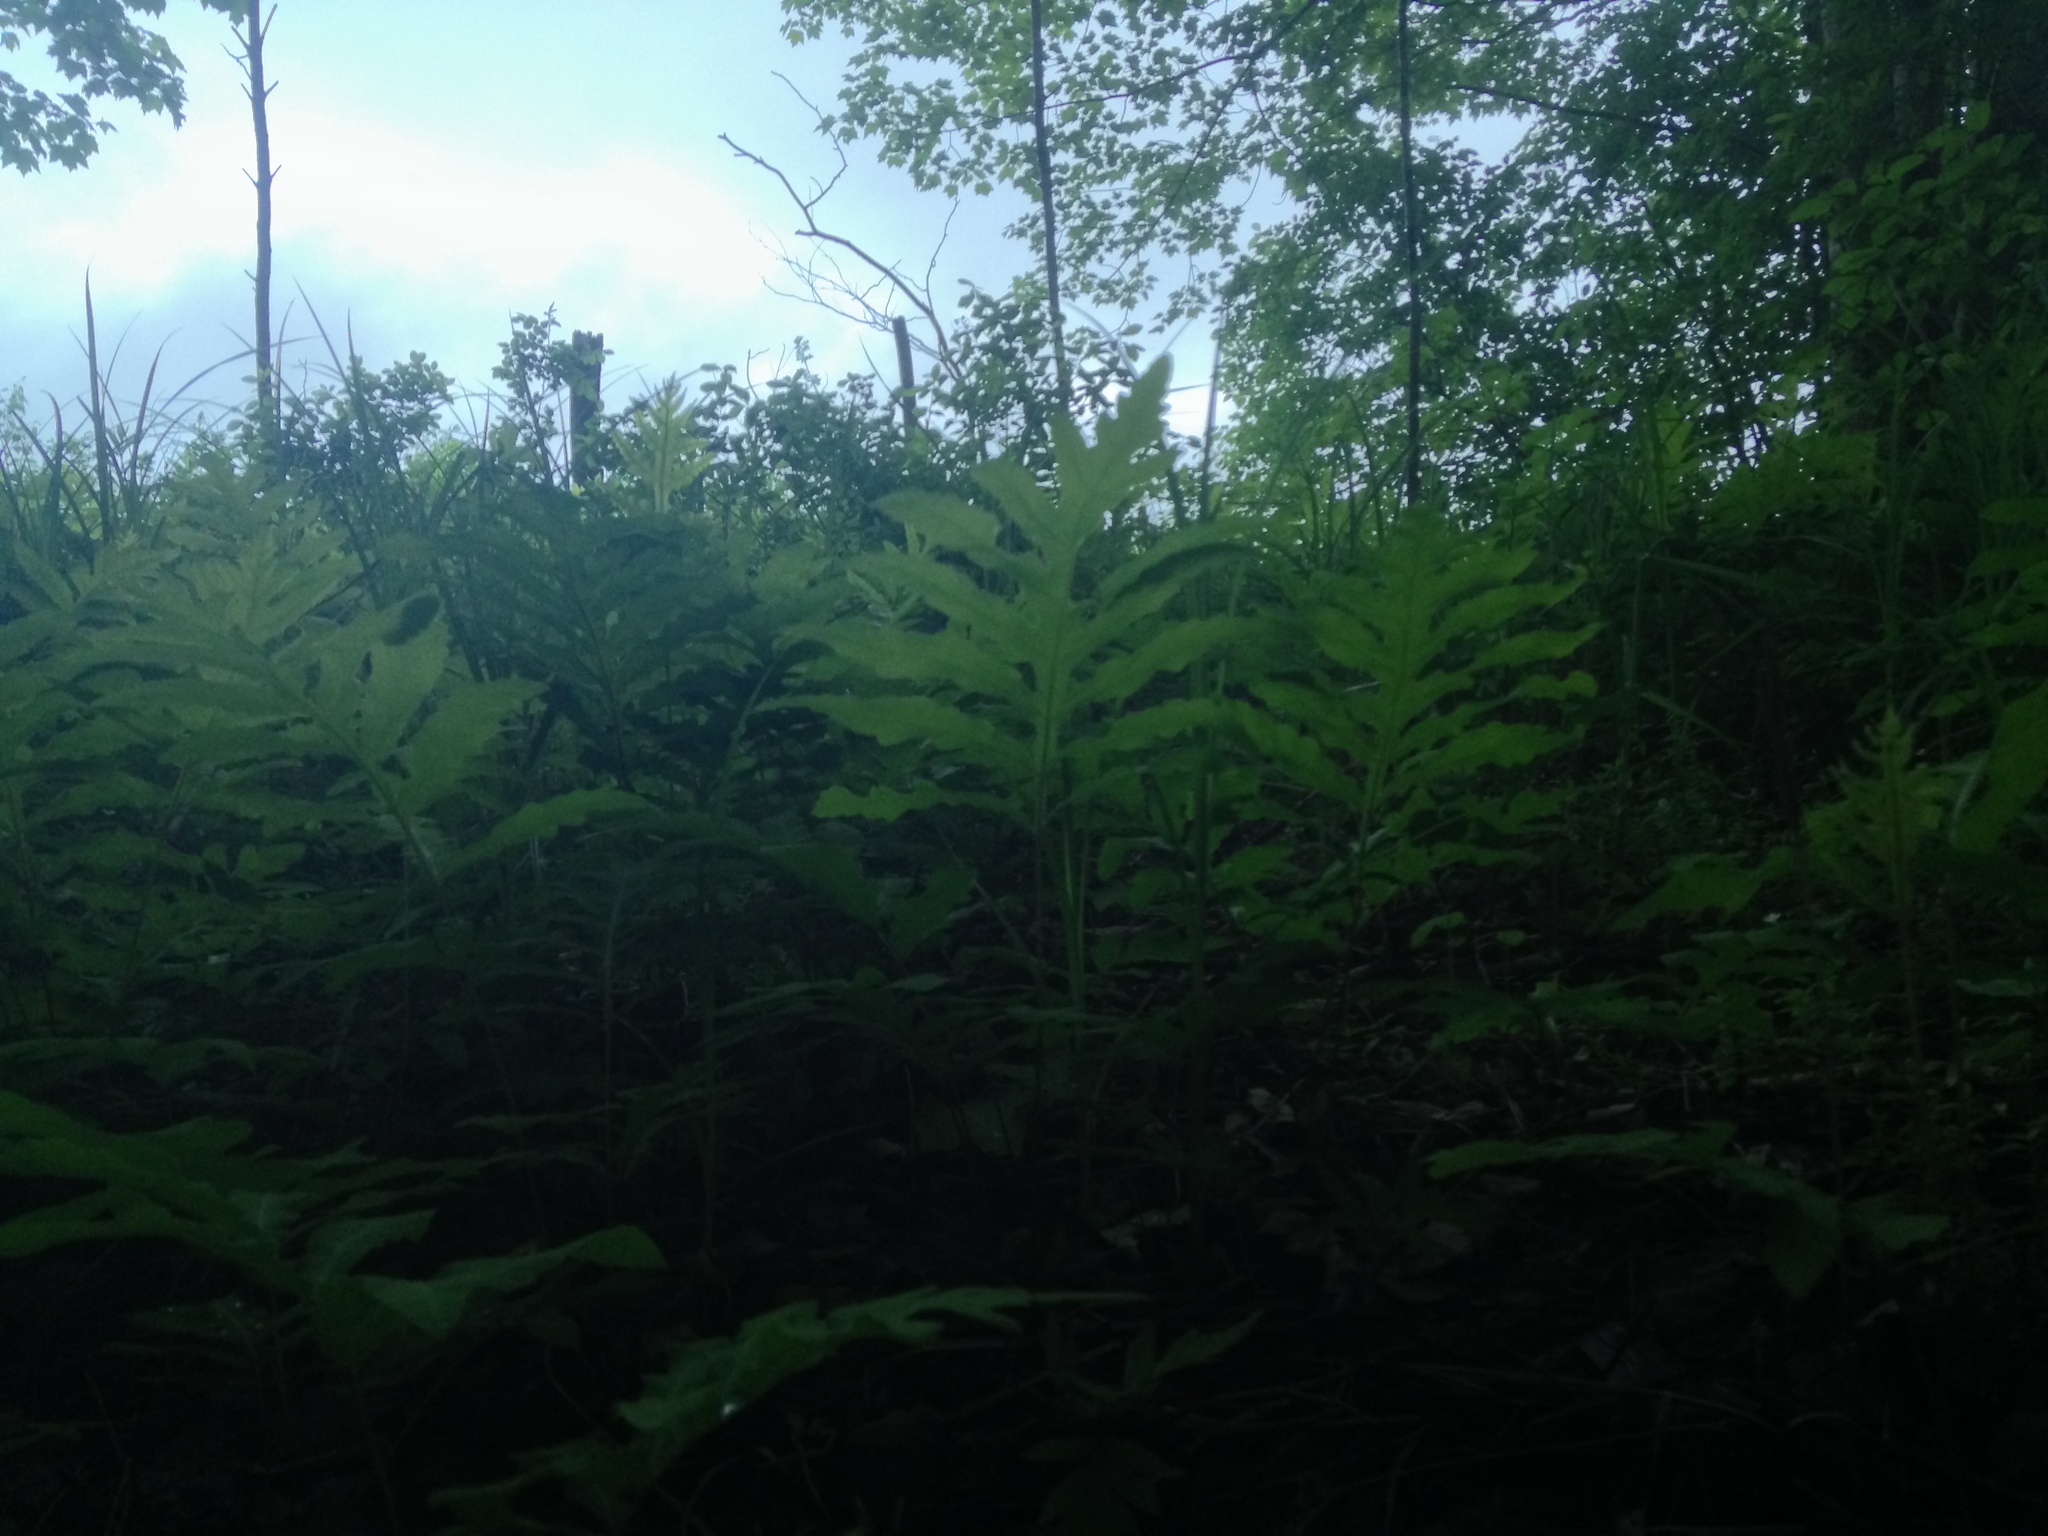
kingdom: Plantae
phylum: Tracheophyta
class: Polypodiopsida
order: Polypodiales
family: Onocleaceae
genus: Onoclea
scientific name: Onoclea sensibilis
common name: Sensitive fern
